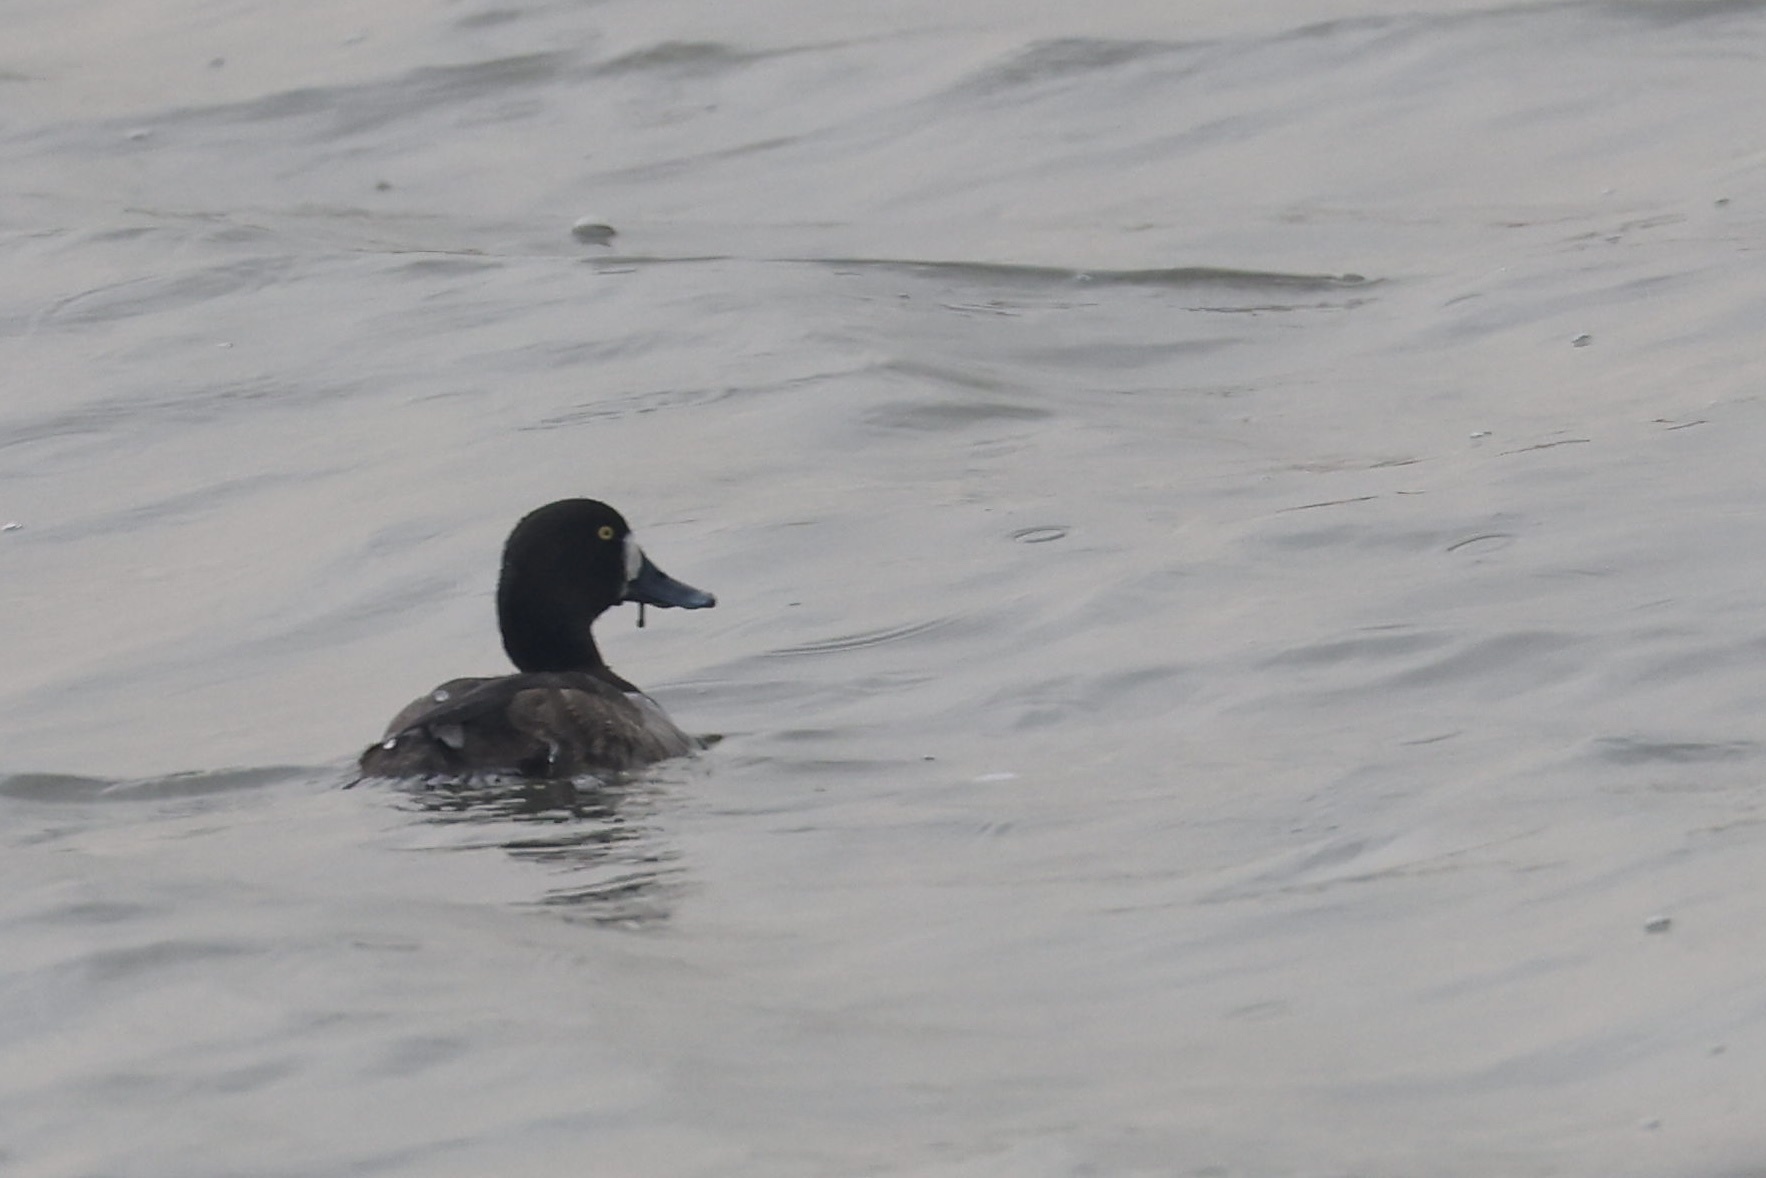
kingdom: Animalia
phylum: Chordata
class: Aves
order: Anseriformes
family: Anatidae
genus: Aythya
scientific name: Aythya marila
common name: Greater scaup
